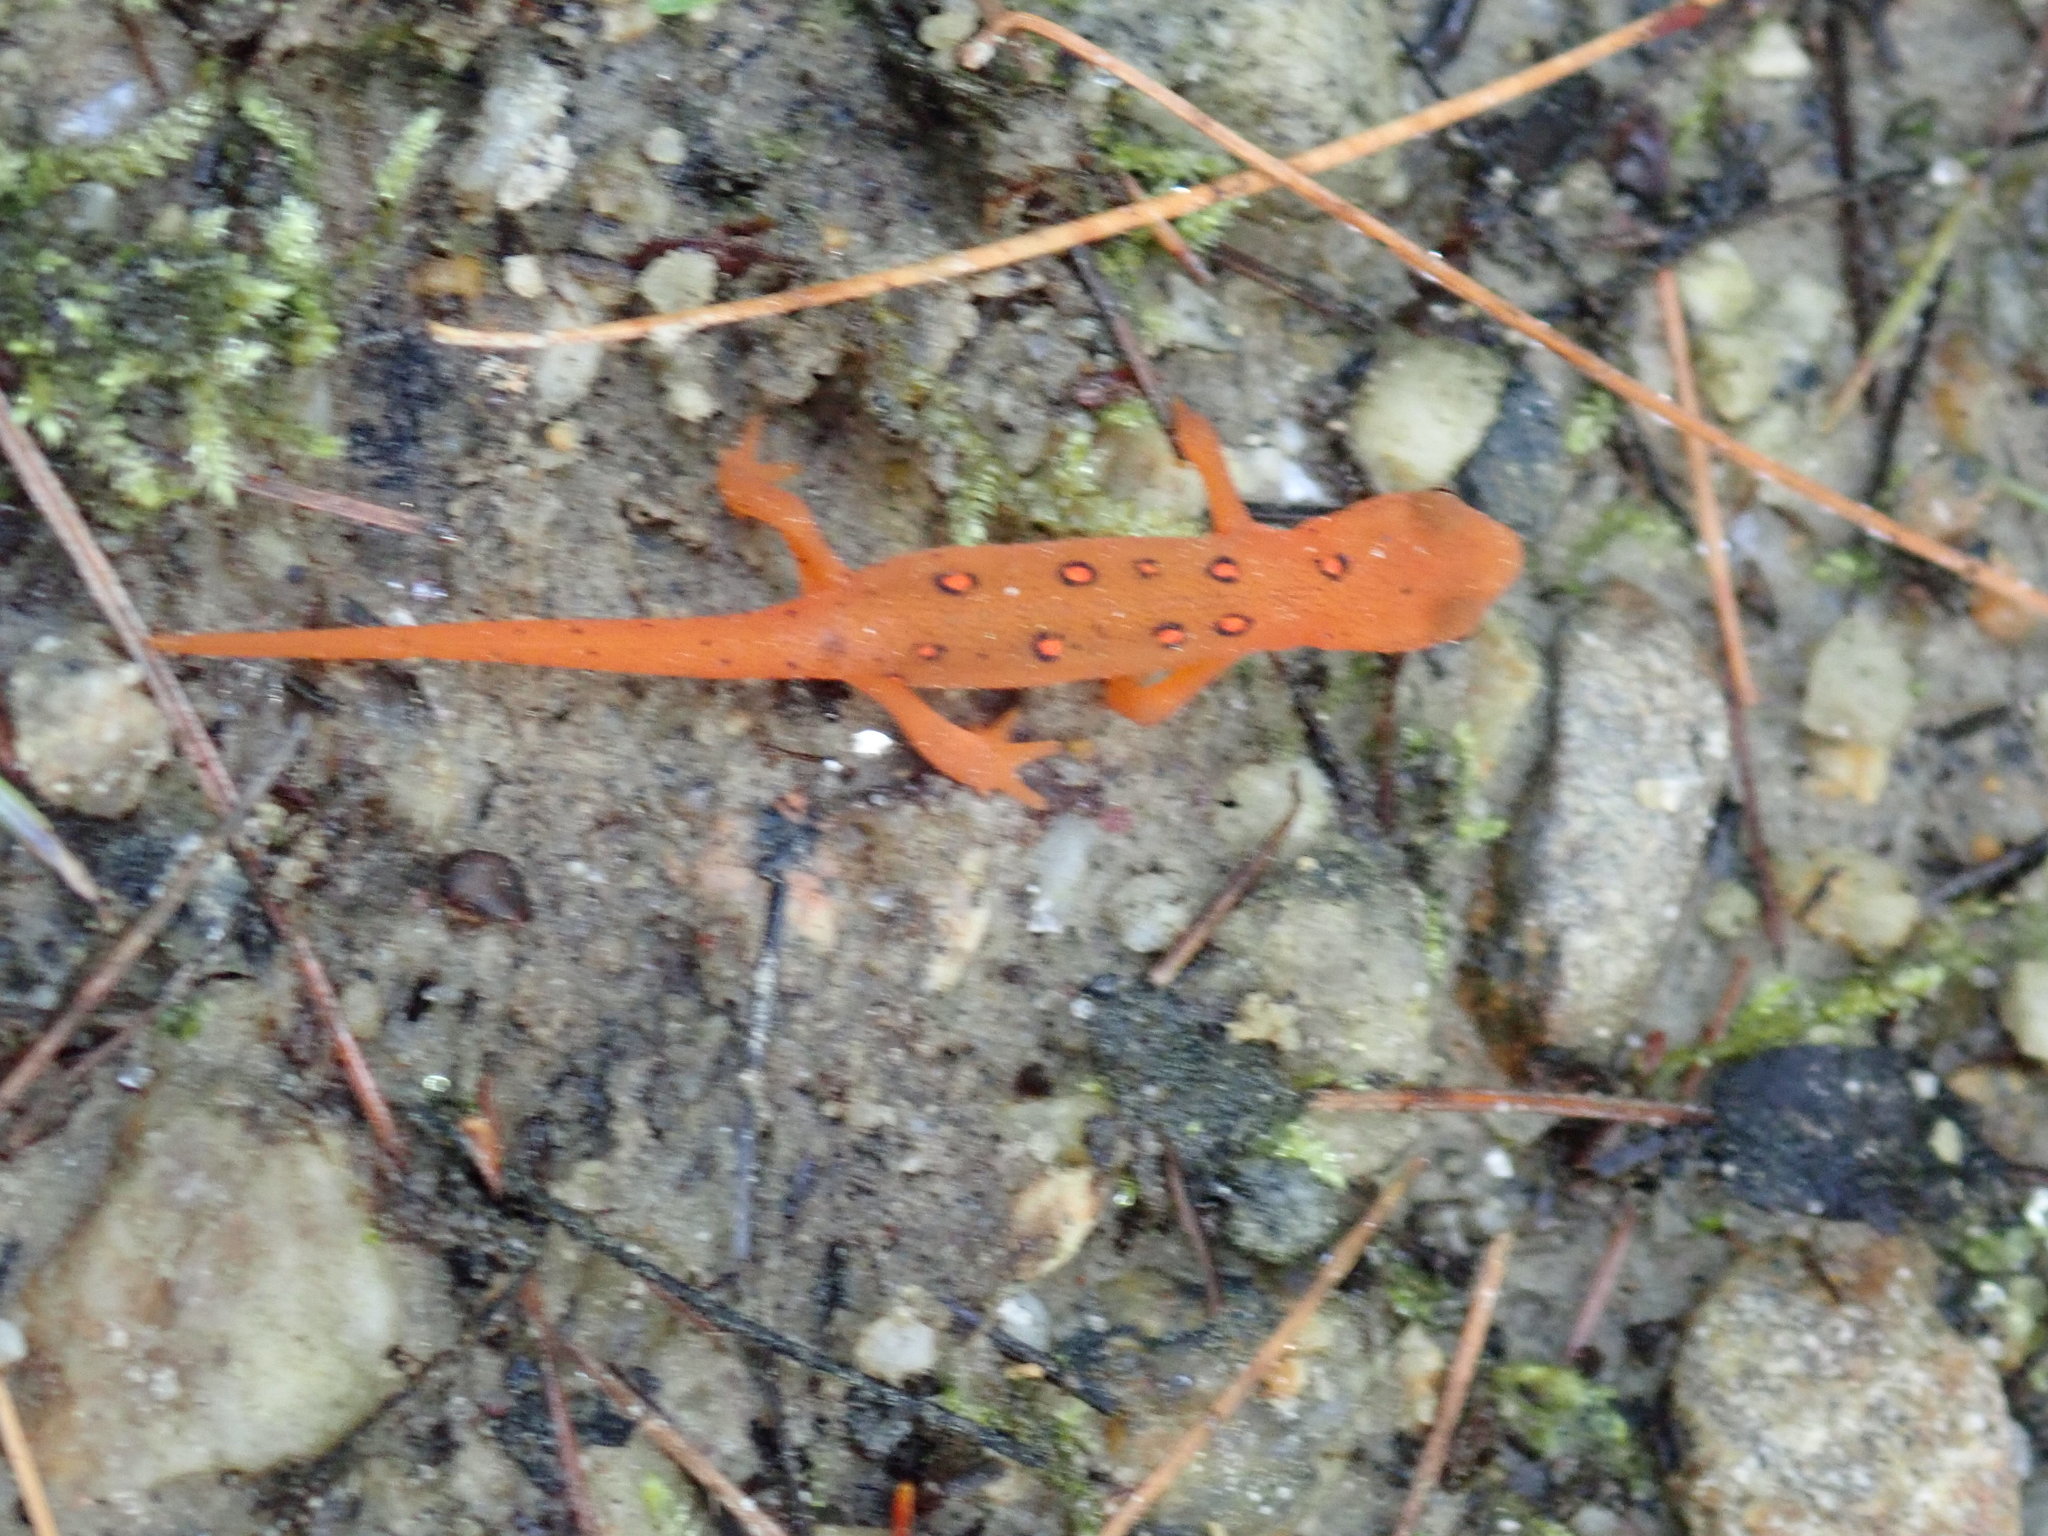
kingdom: Animalia
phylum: Chordata
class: Amphibia
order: Caudata
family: Salamandridae
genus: Notophthalmus
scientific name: Notophthalmus viridescens
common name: Eastern newt
